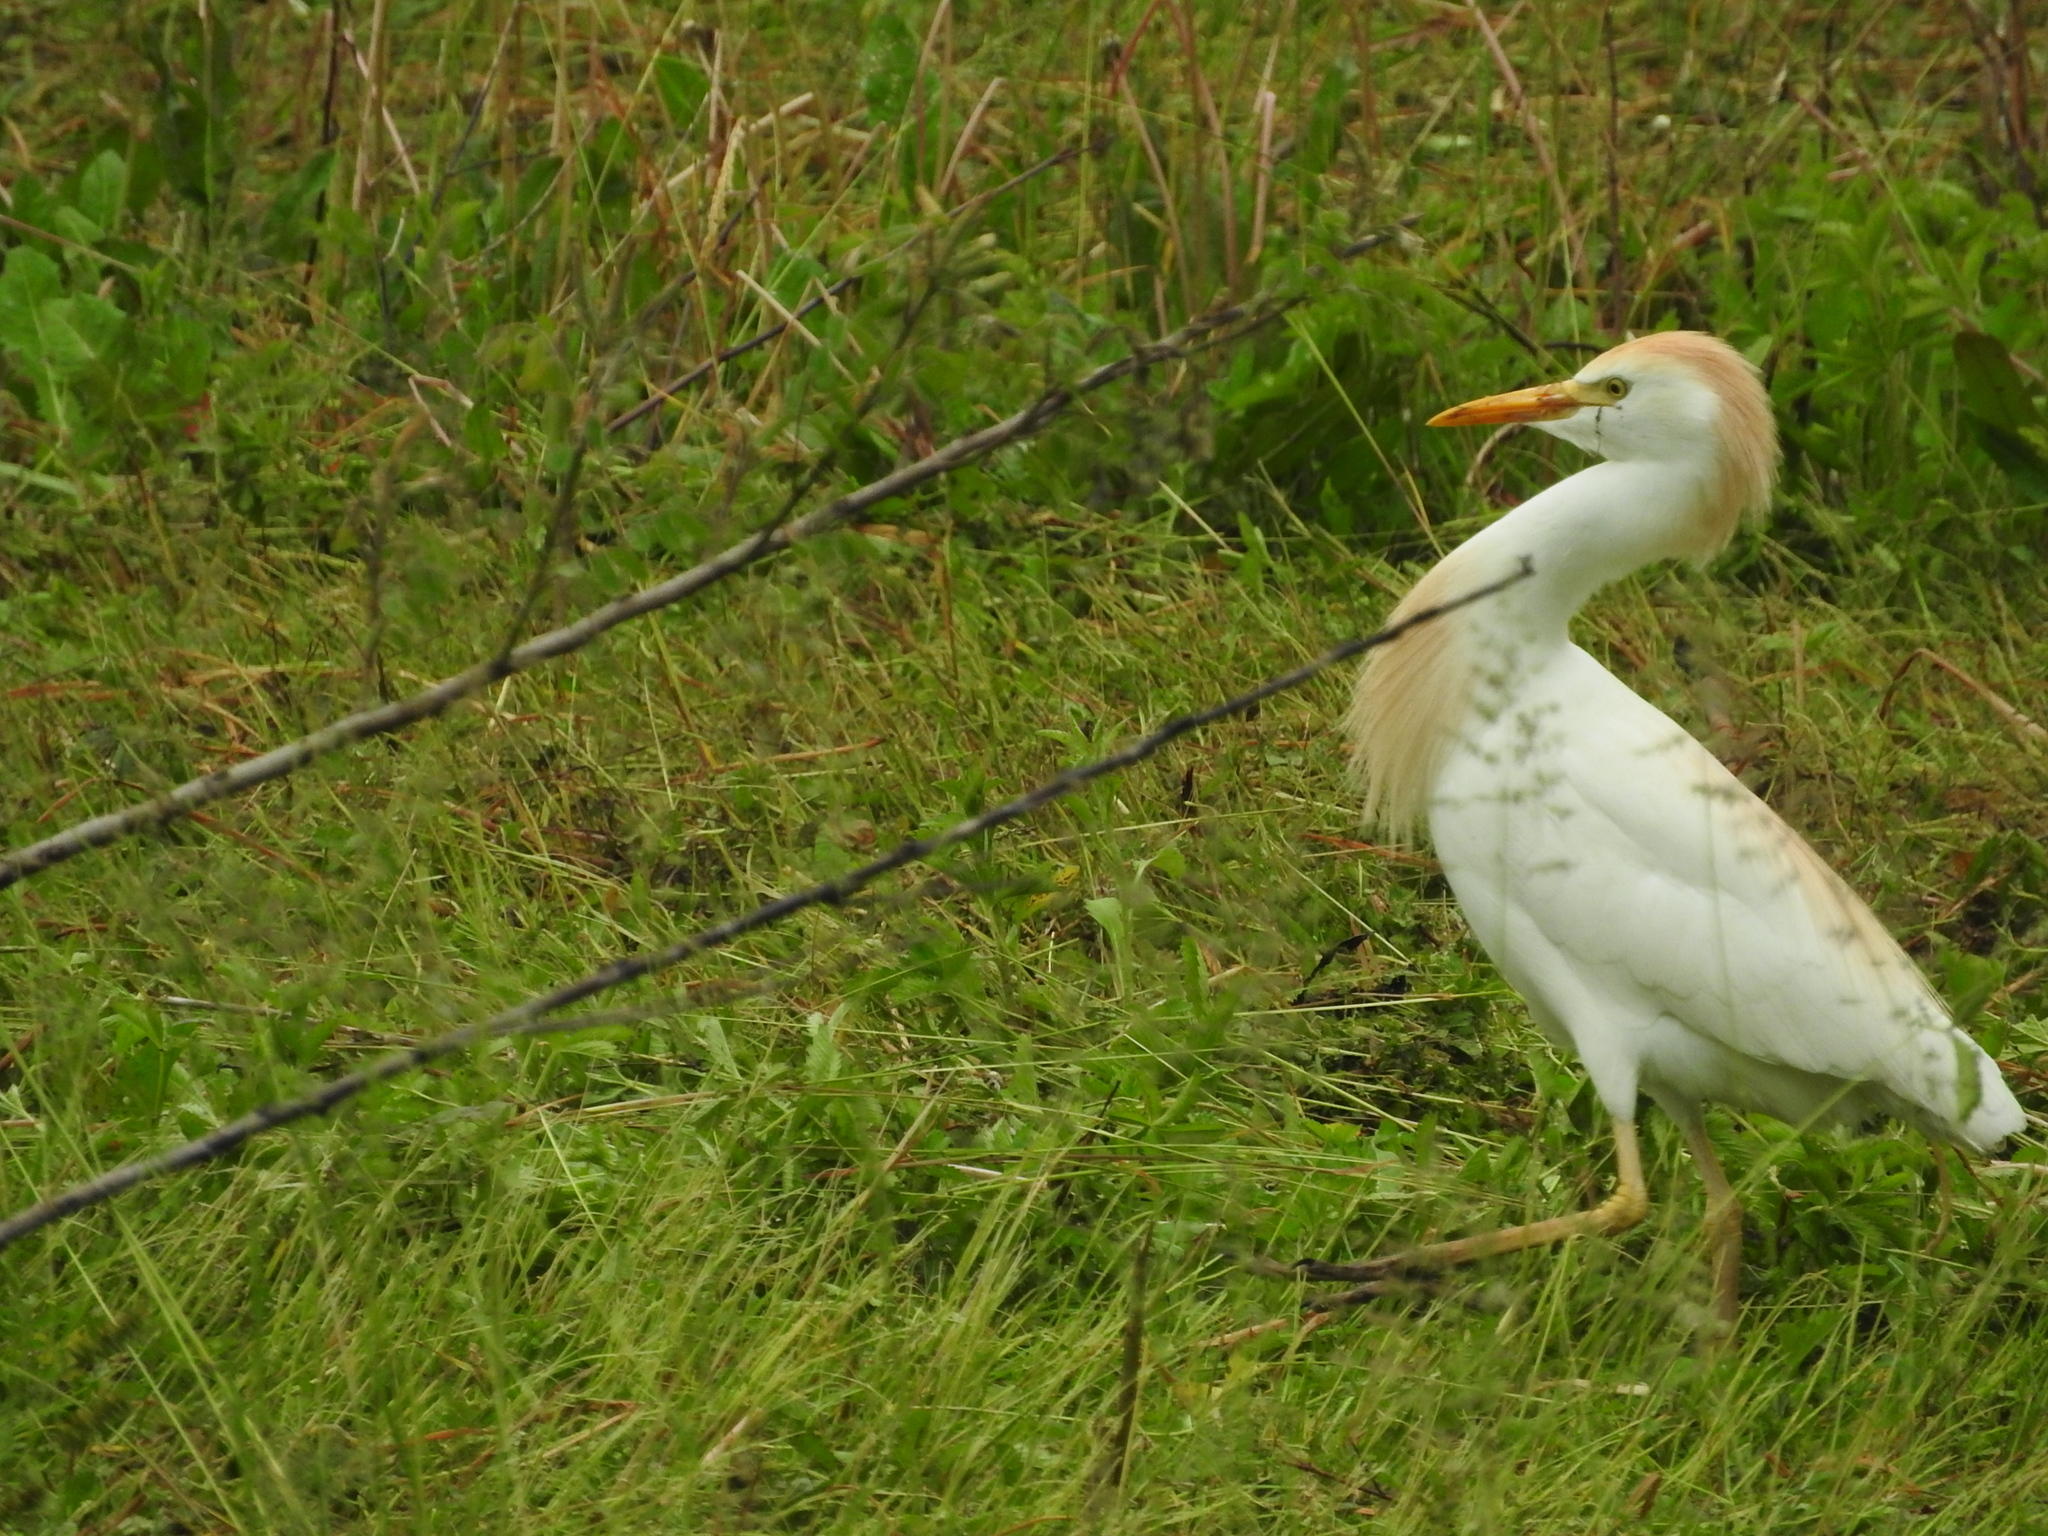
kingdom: Animalia
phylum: Chordata
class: Aves
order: Pelecaniformes
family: Ardeidae
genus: Bubulcus
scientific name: Bubulcus ibis
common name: Cattle egret
